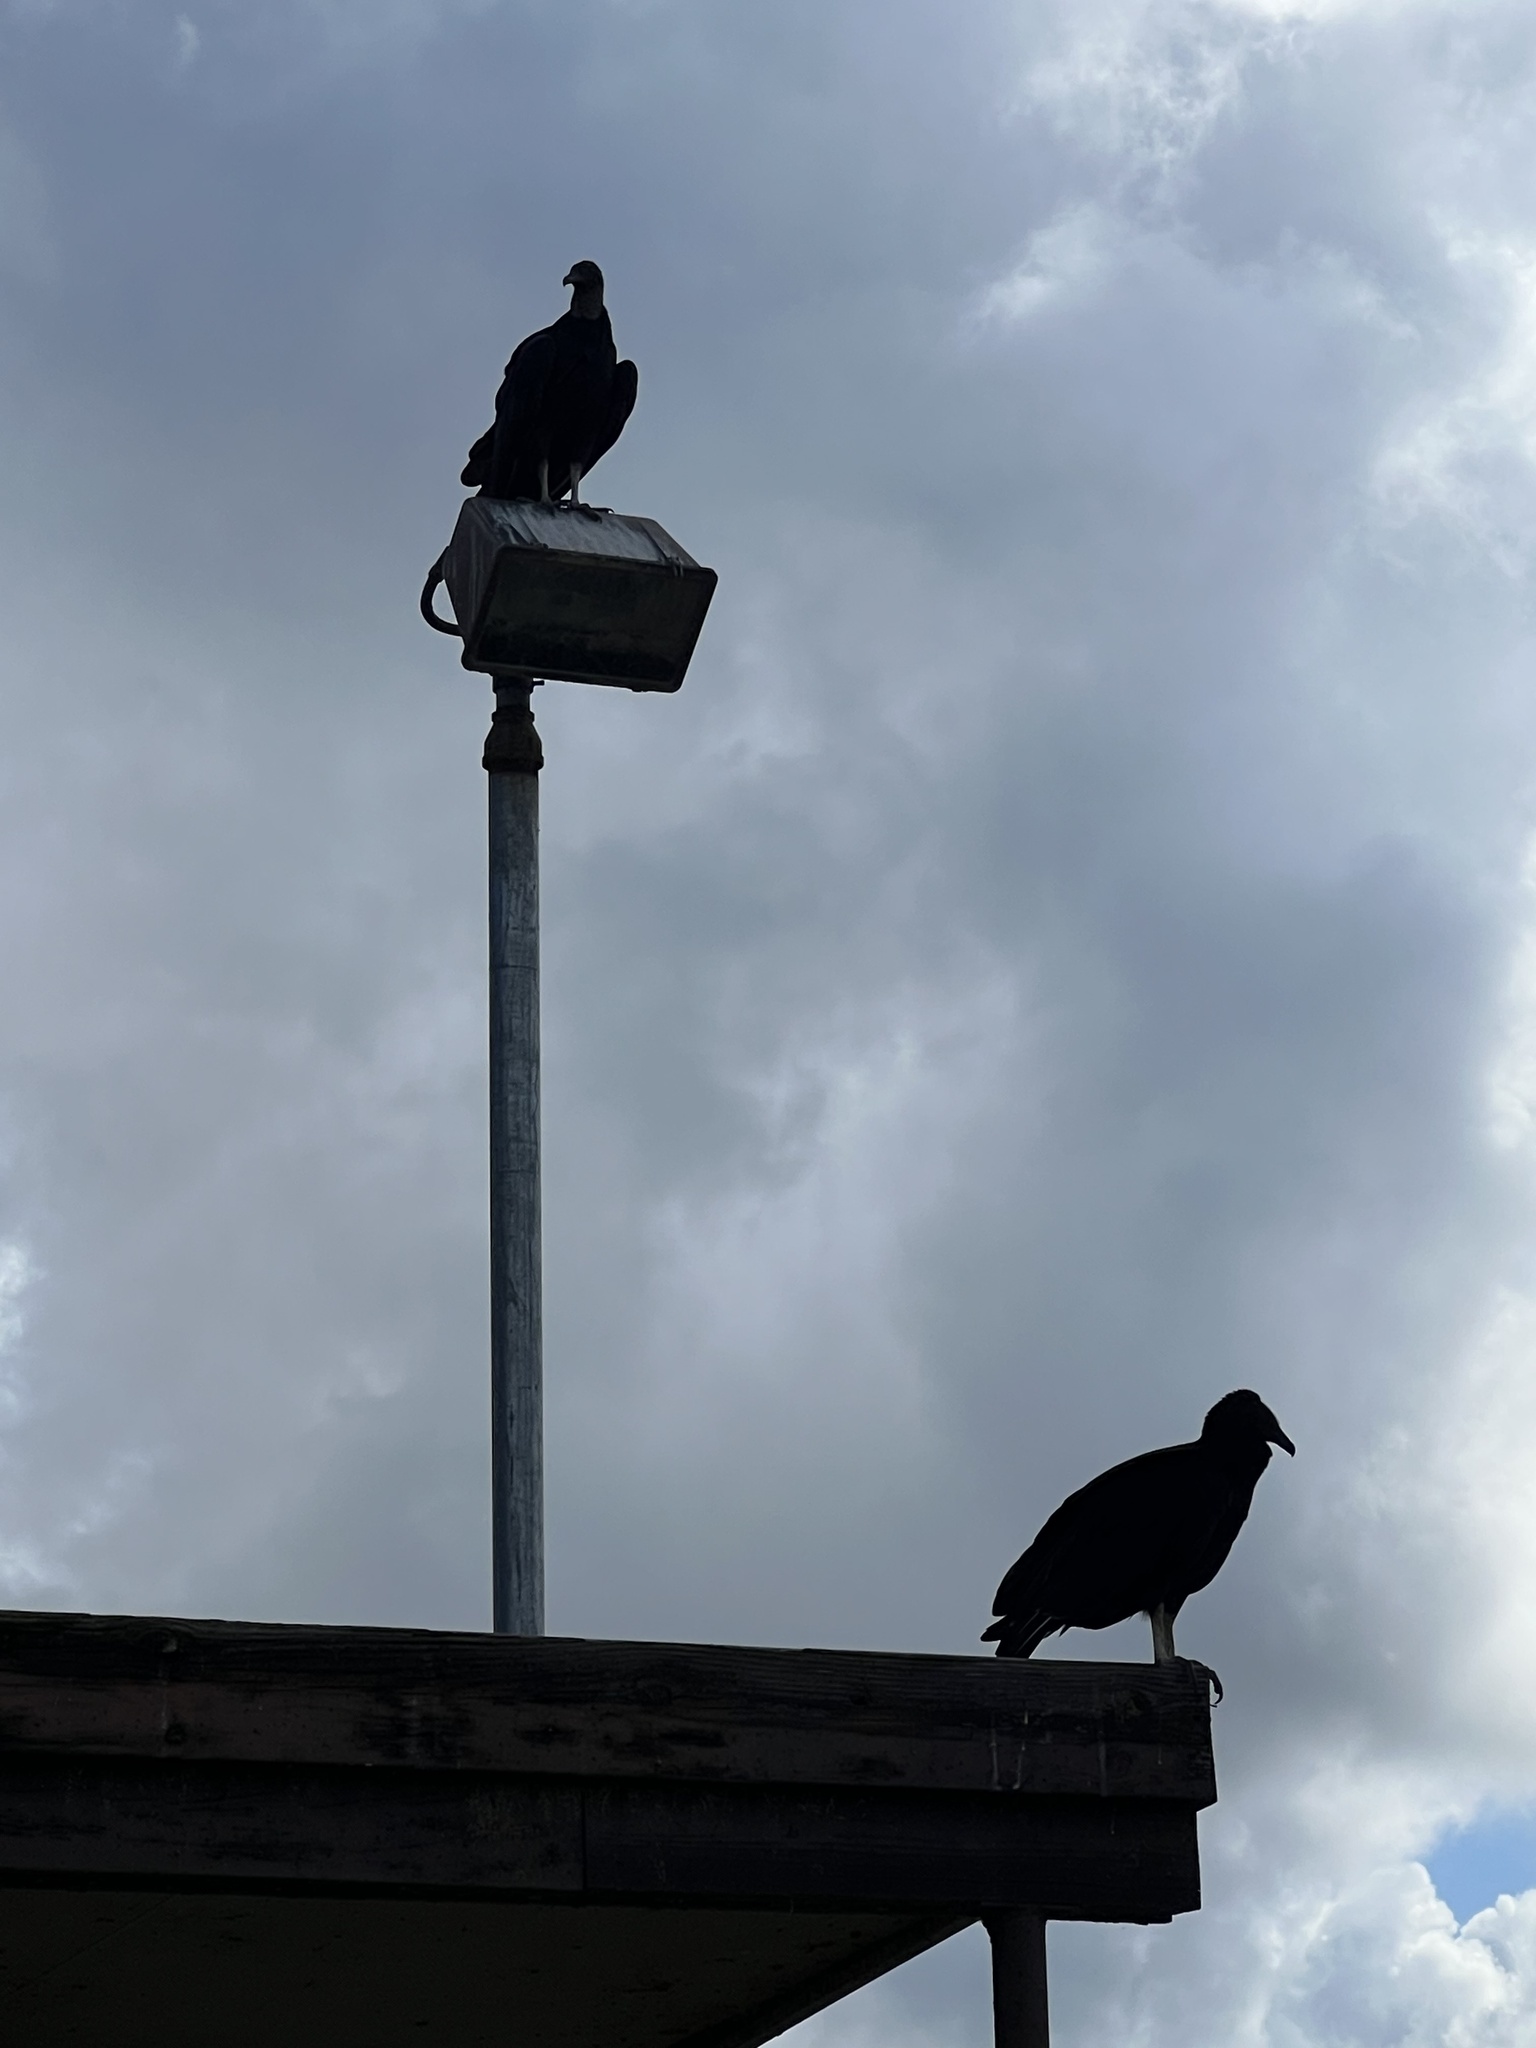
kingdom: Animalia
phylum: Chordata
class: Aves
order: Accipitriformes
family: Cathartidae
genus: Coragyps
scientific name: Coragyps atratus
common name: Black vulture
